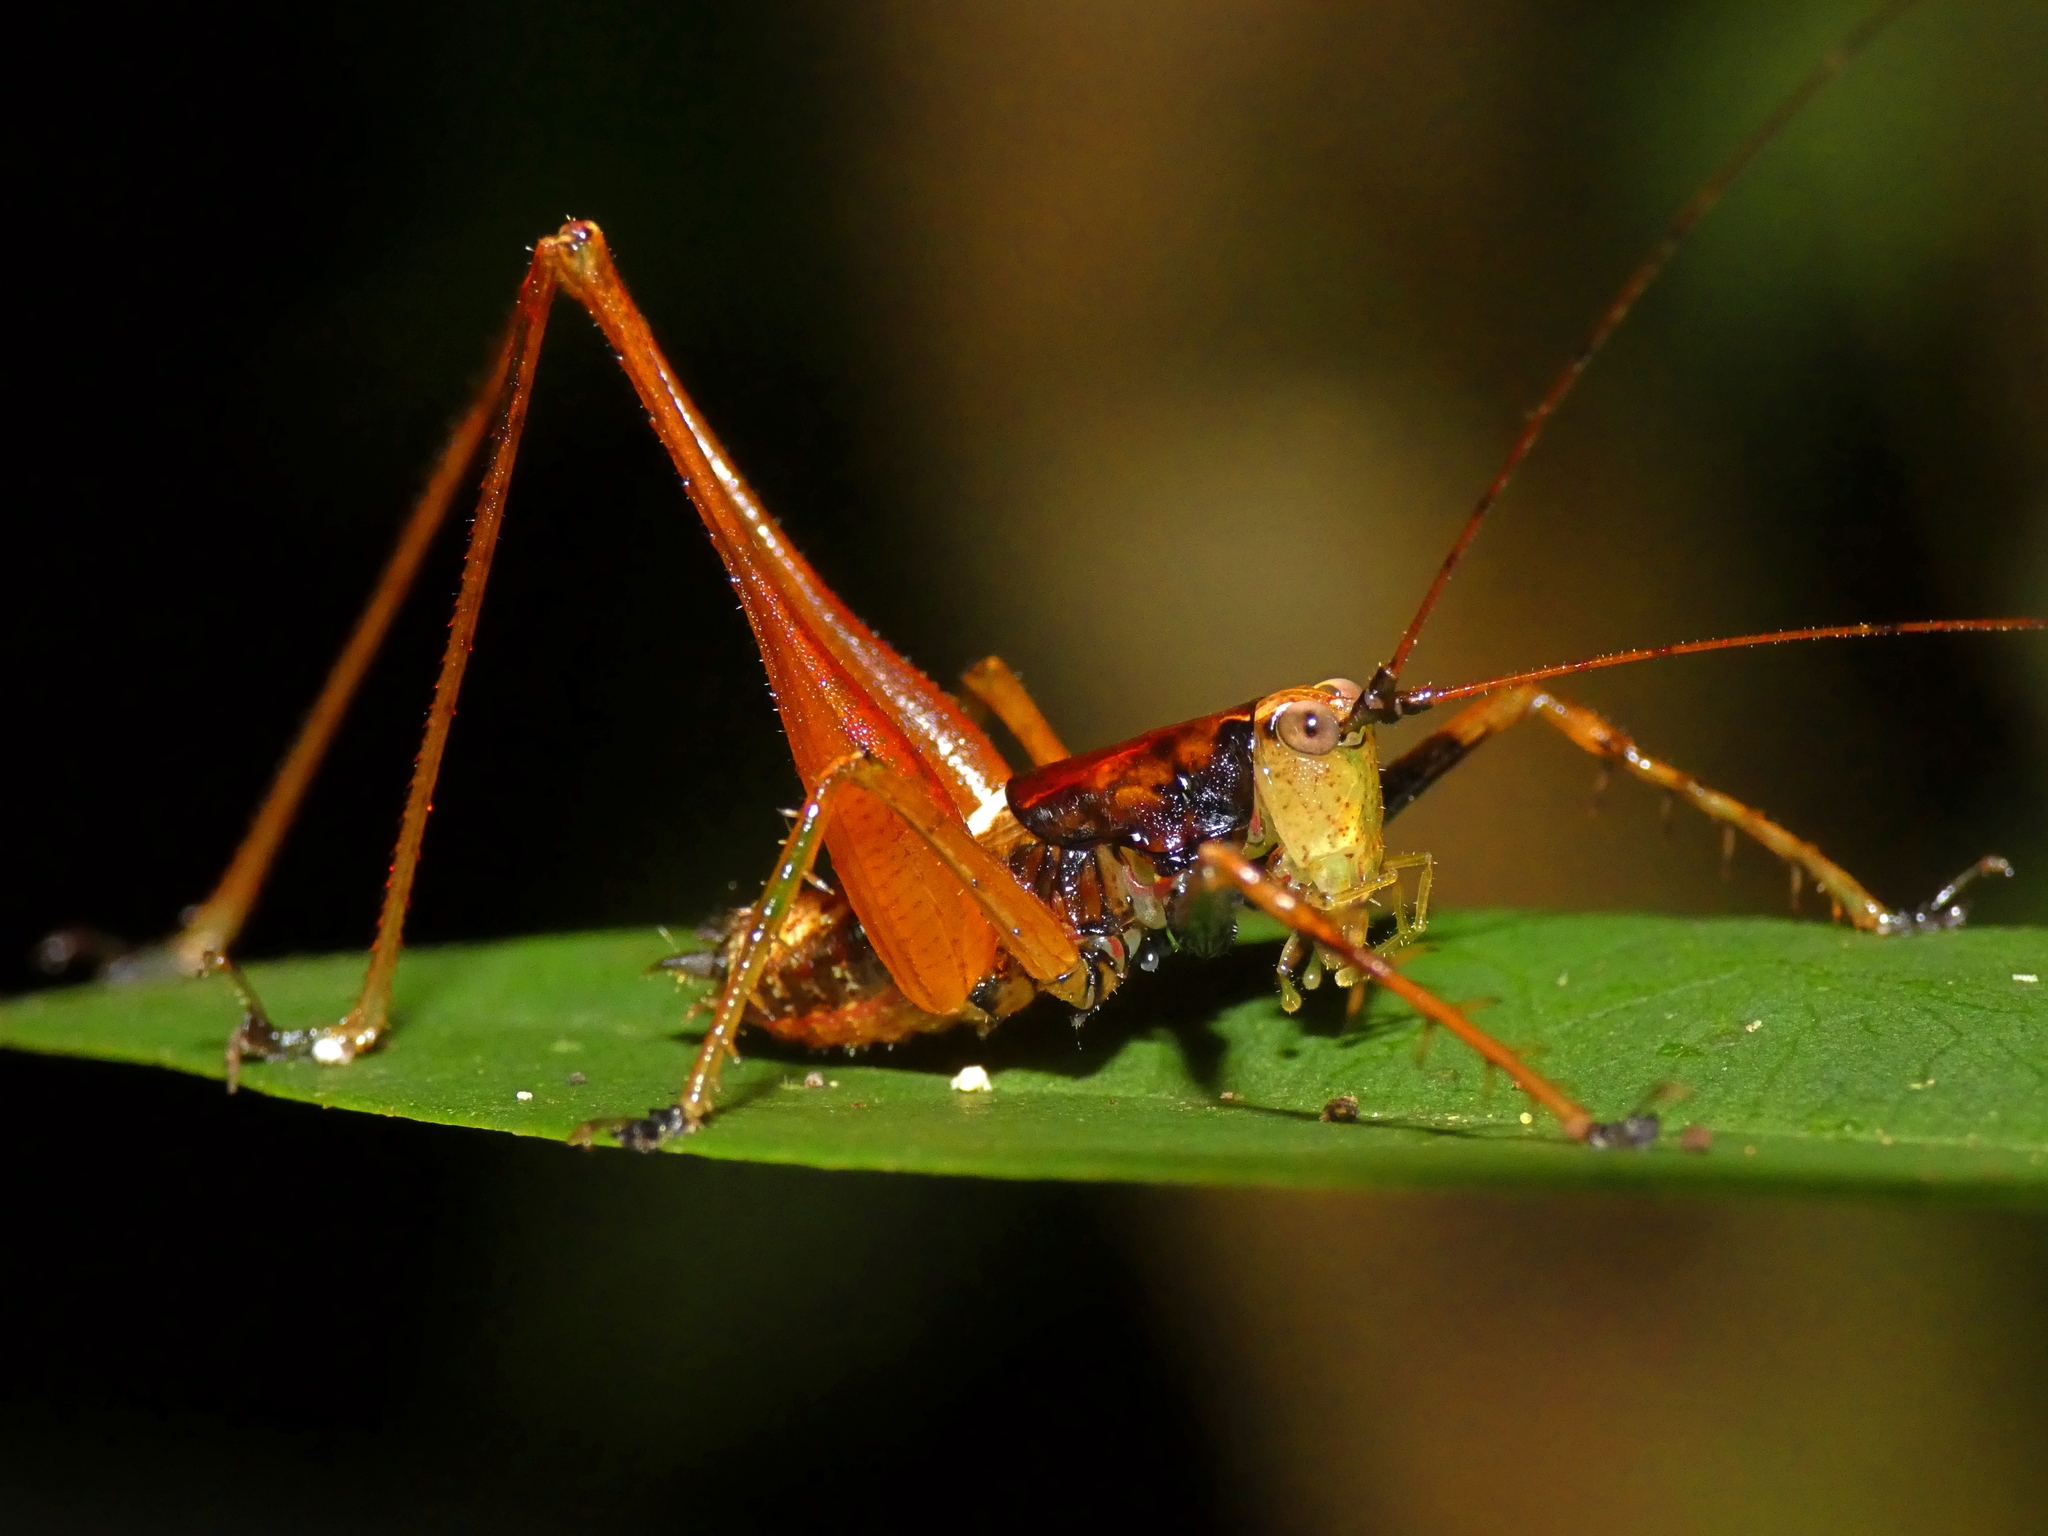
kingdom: Animalia
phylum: Arthropoda
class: Insecta
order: Orthoptera
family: Tettigoniidae
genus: Xingbaoia
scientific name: Xingbaoia karakara
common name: Jin's ginger katydid
